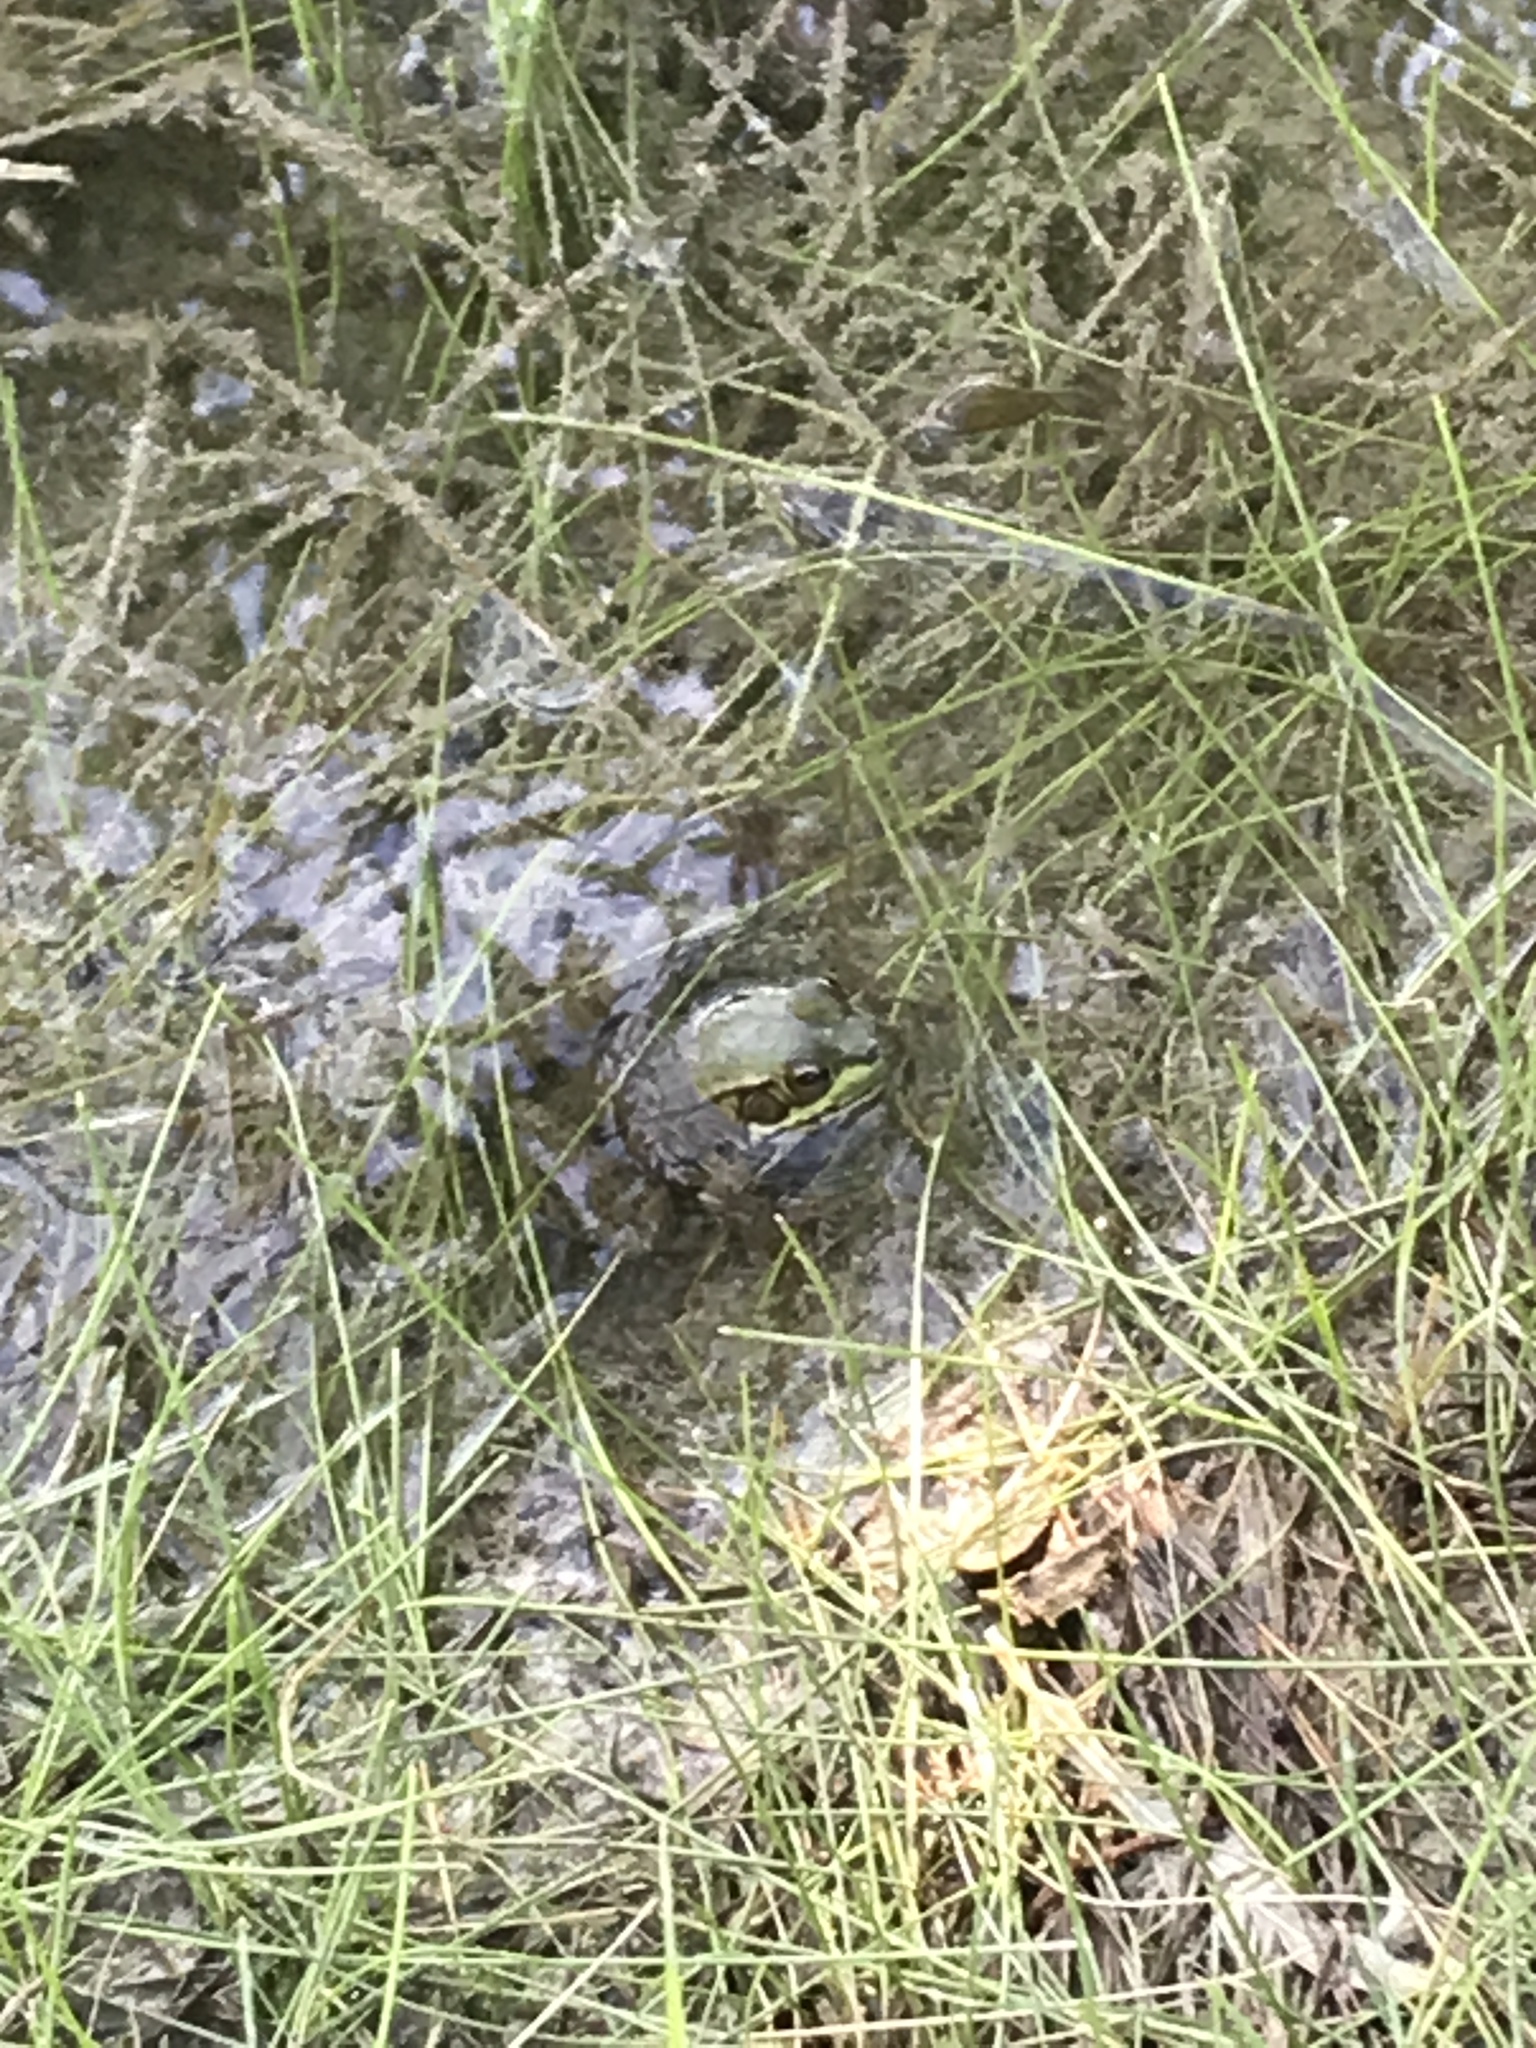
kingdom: Animalia
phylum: Chordata
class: Amphibia
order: Anura
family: Ranidae
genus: Lithobates
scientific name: Lithobates clamitans
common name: Green frog
